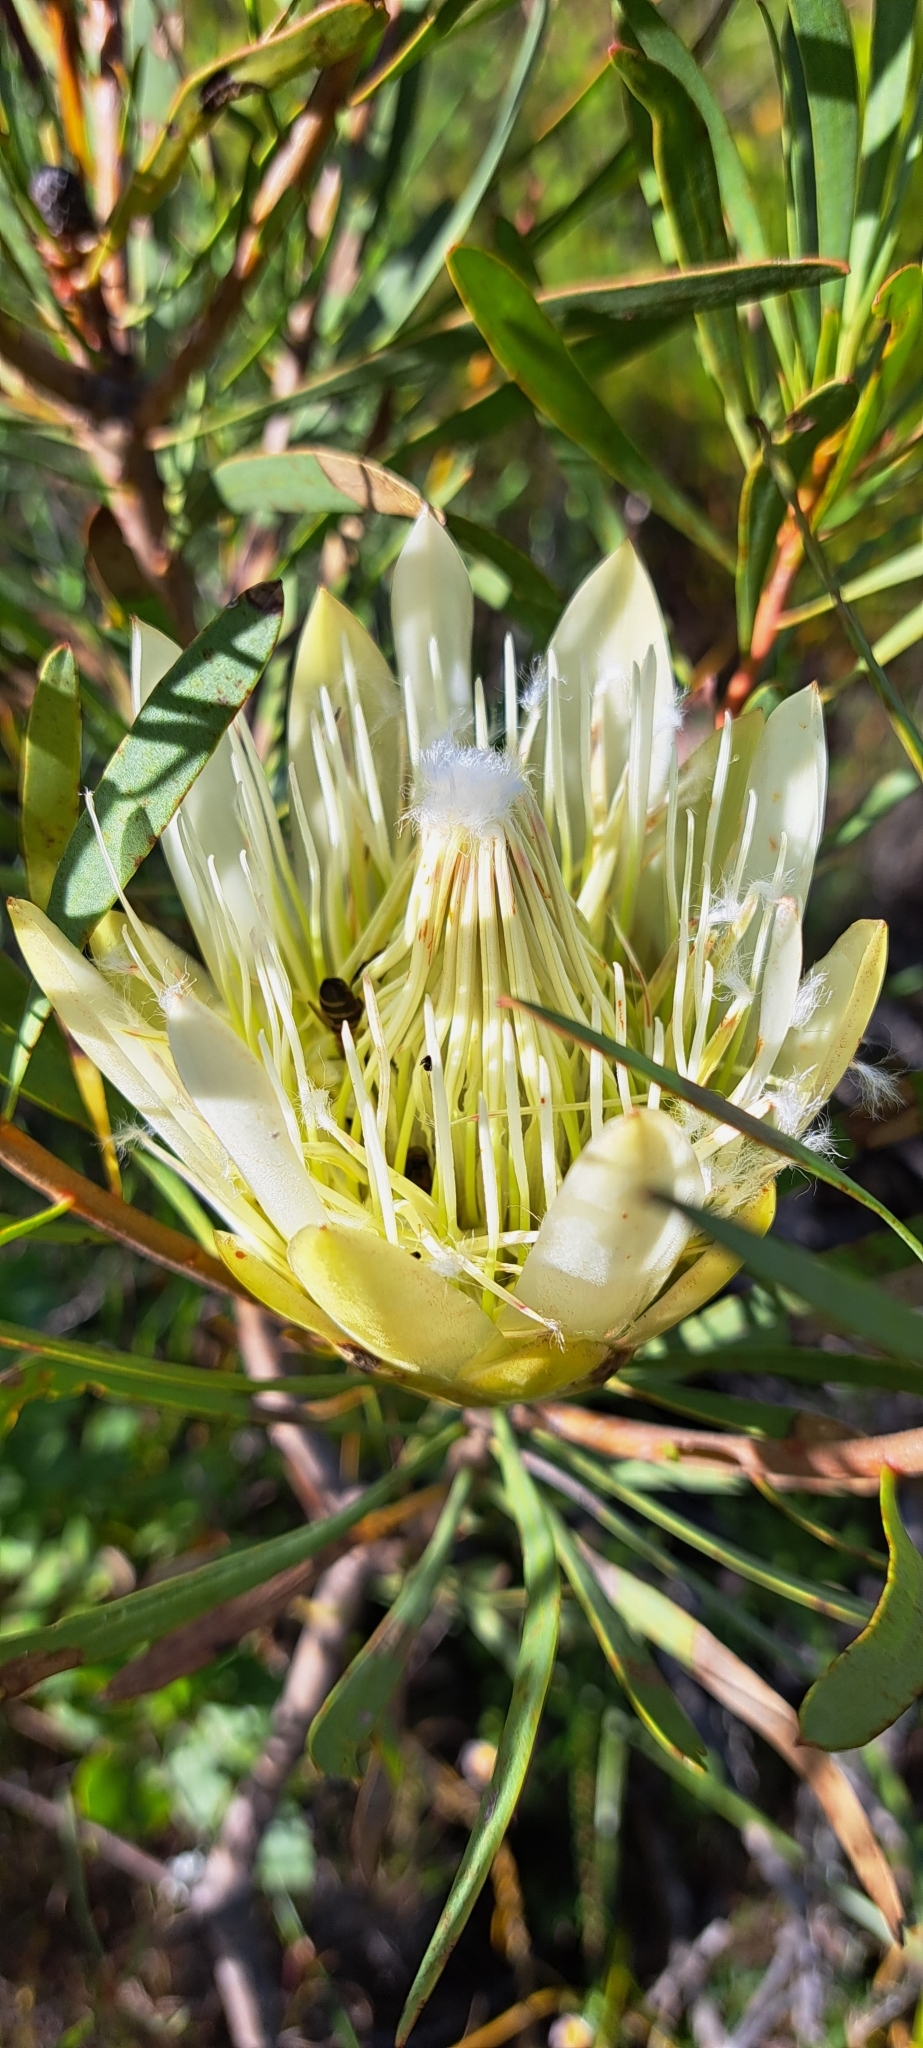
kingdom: Plantae
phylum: Tracheophyta
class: Magnoliopsida
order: Proteales
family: Proteaceae
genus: Protea
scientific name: Protea repens
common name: Sugarbush
